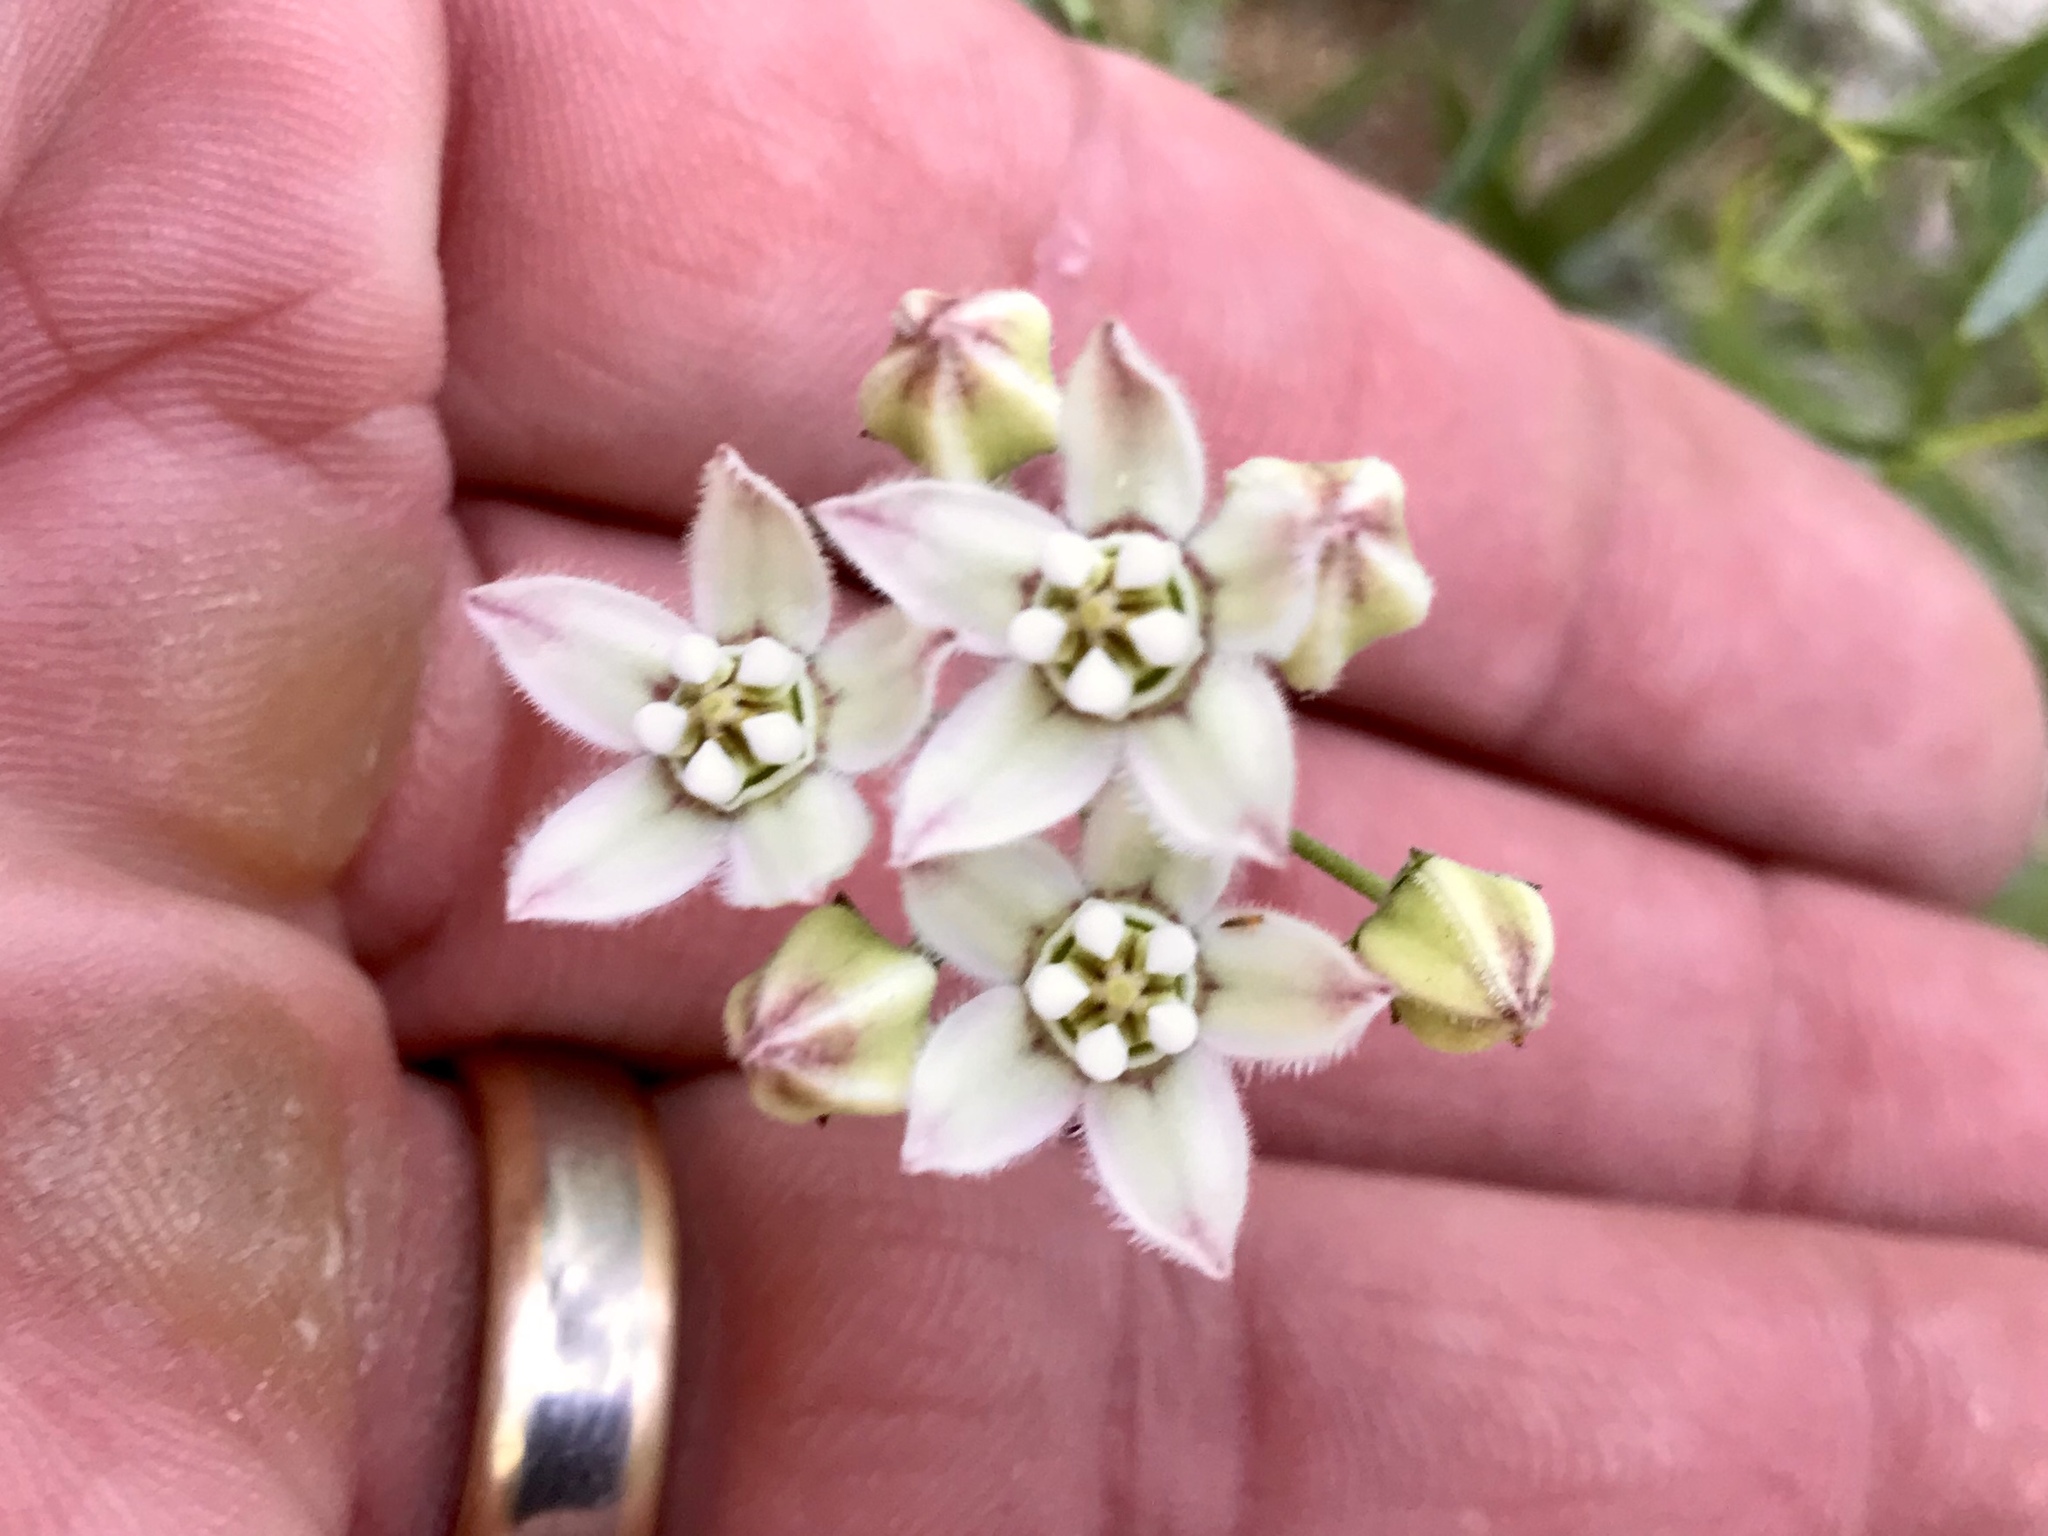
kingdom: Plantae
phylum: Tracheophyta
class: Magnoliopsida
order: Gentianales
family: Apocynaceae
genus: Funastrum
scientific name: Funastrum heterophyllum
